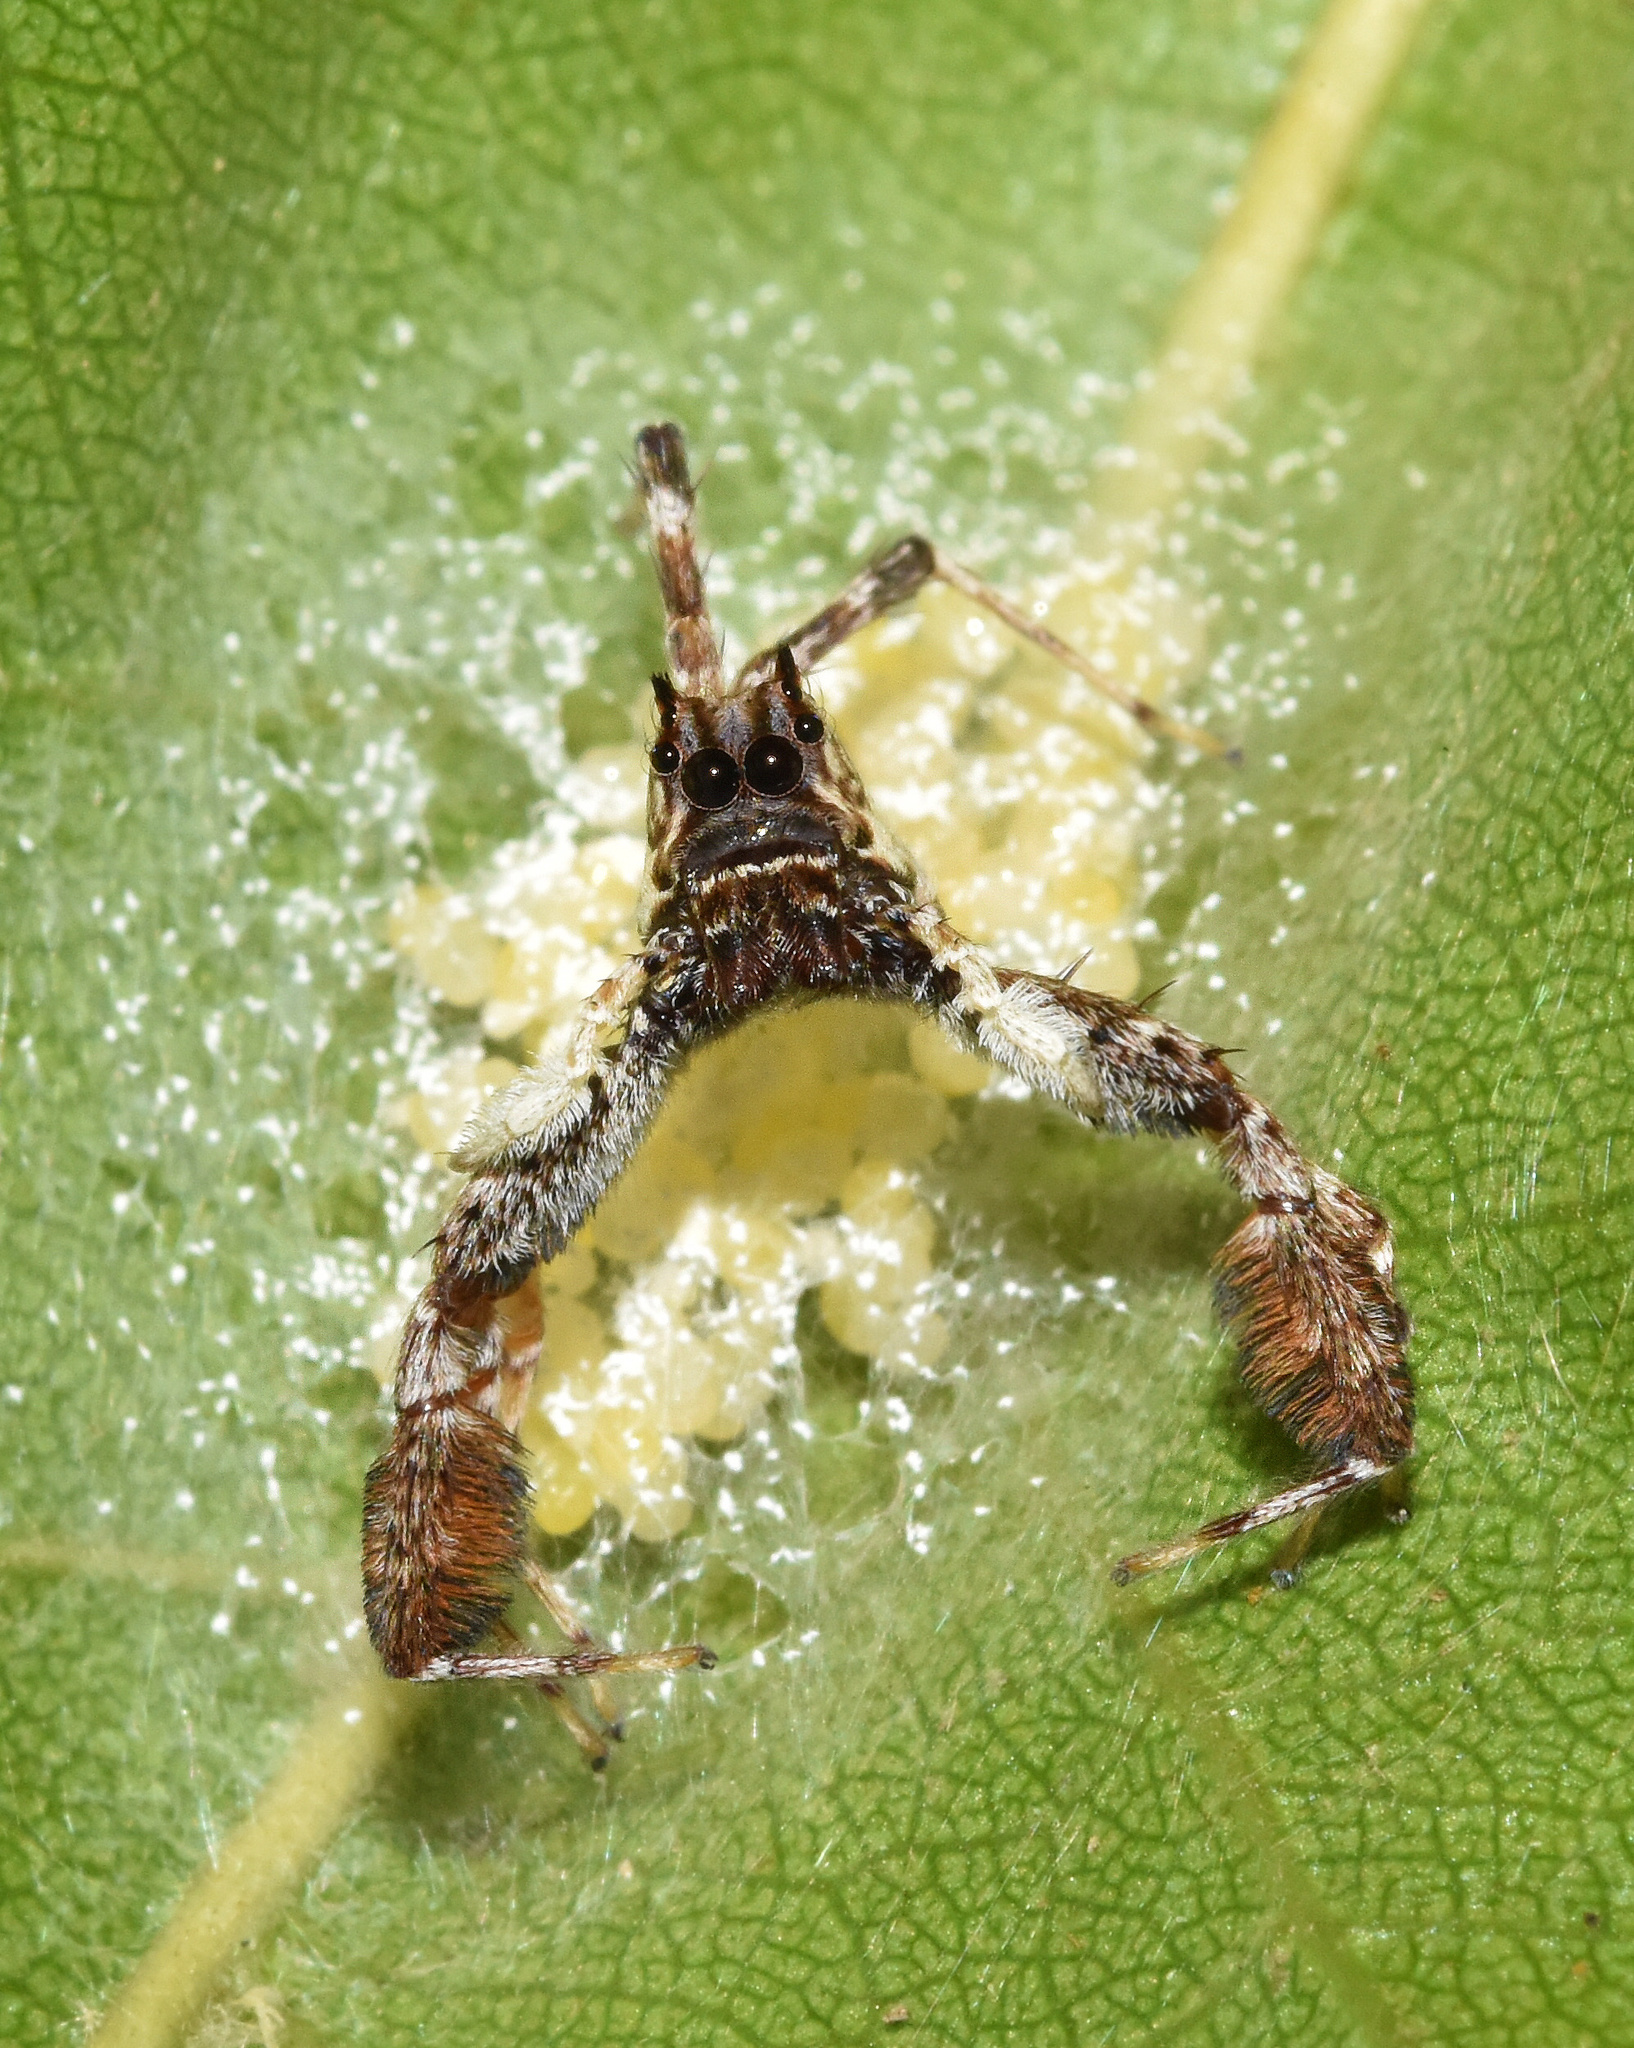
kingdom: Animalia
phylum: Arthropoda
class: Arachnida
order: Araneae
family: Salticidae
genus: Veissella
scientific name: Veissella durbani
